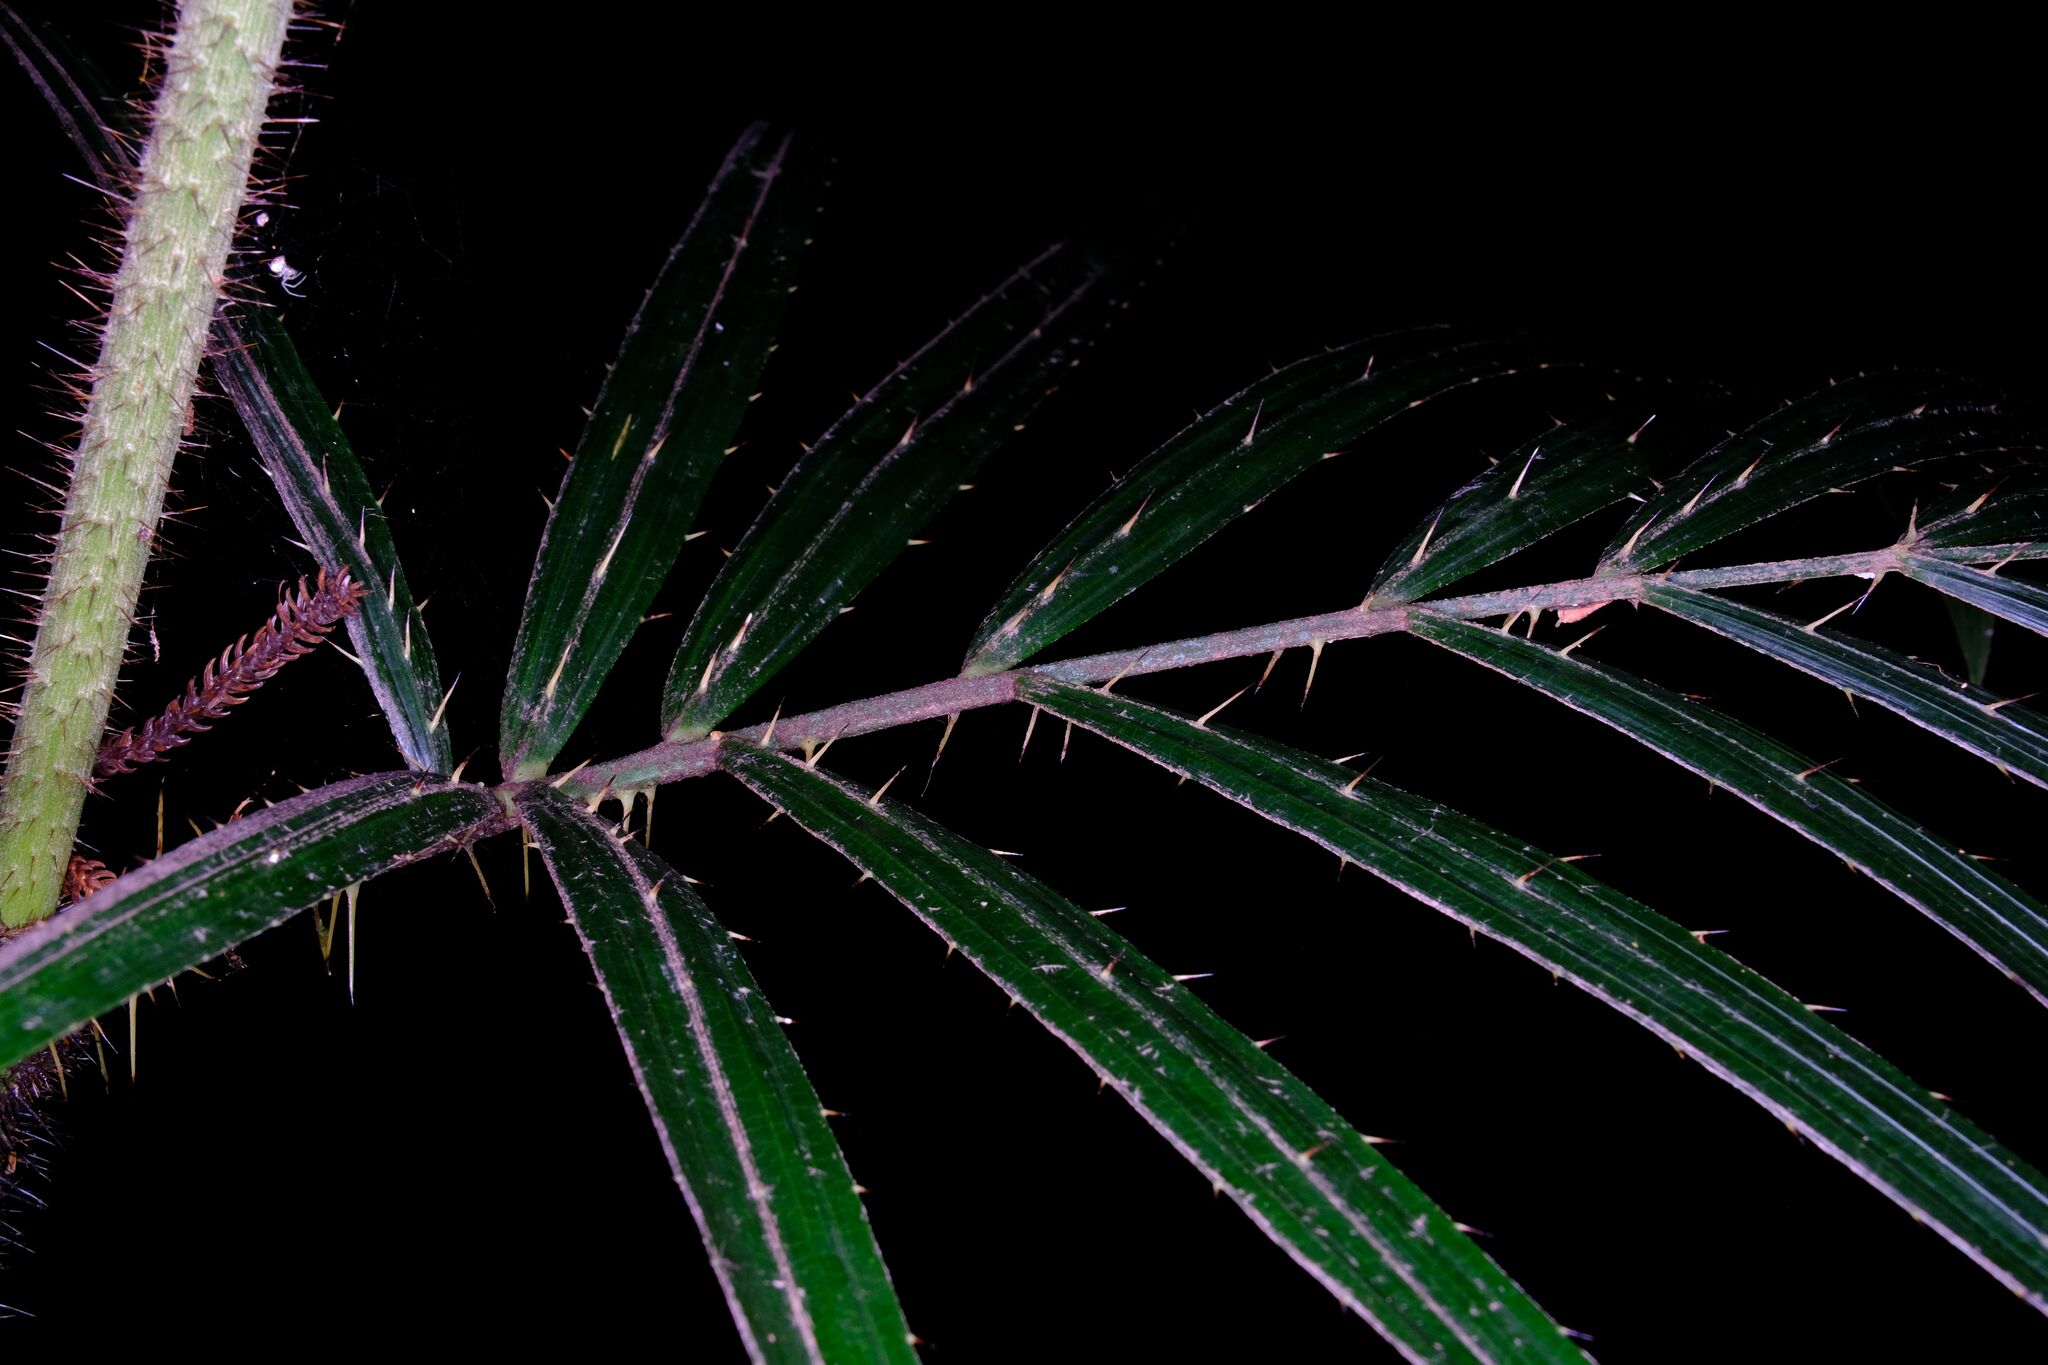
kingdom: Plantae
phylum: Tracheophyta
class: Liliopsida
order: Arecales
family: Arecaceae
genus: Calamus
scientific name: Calamus muelleri
